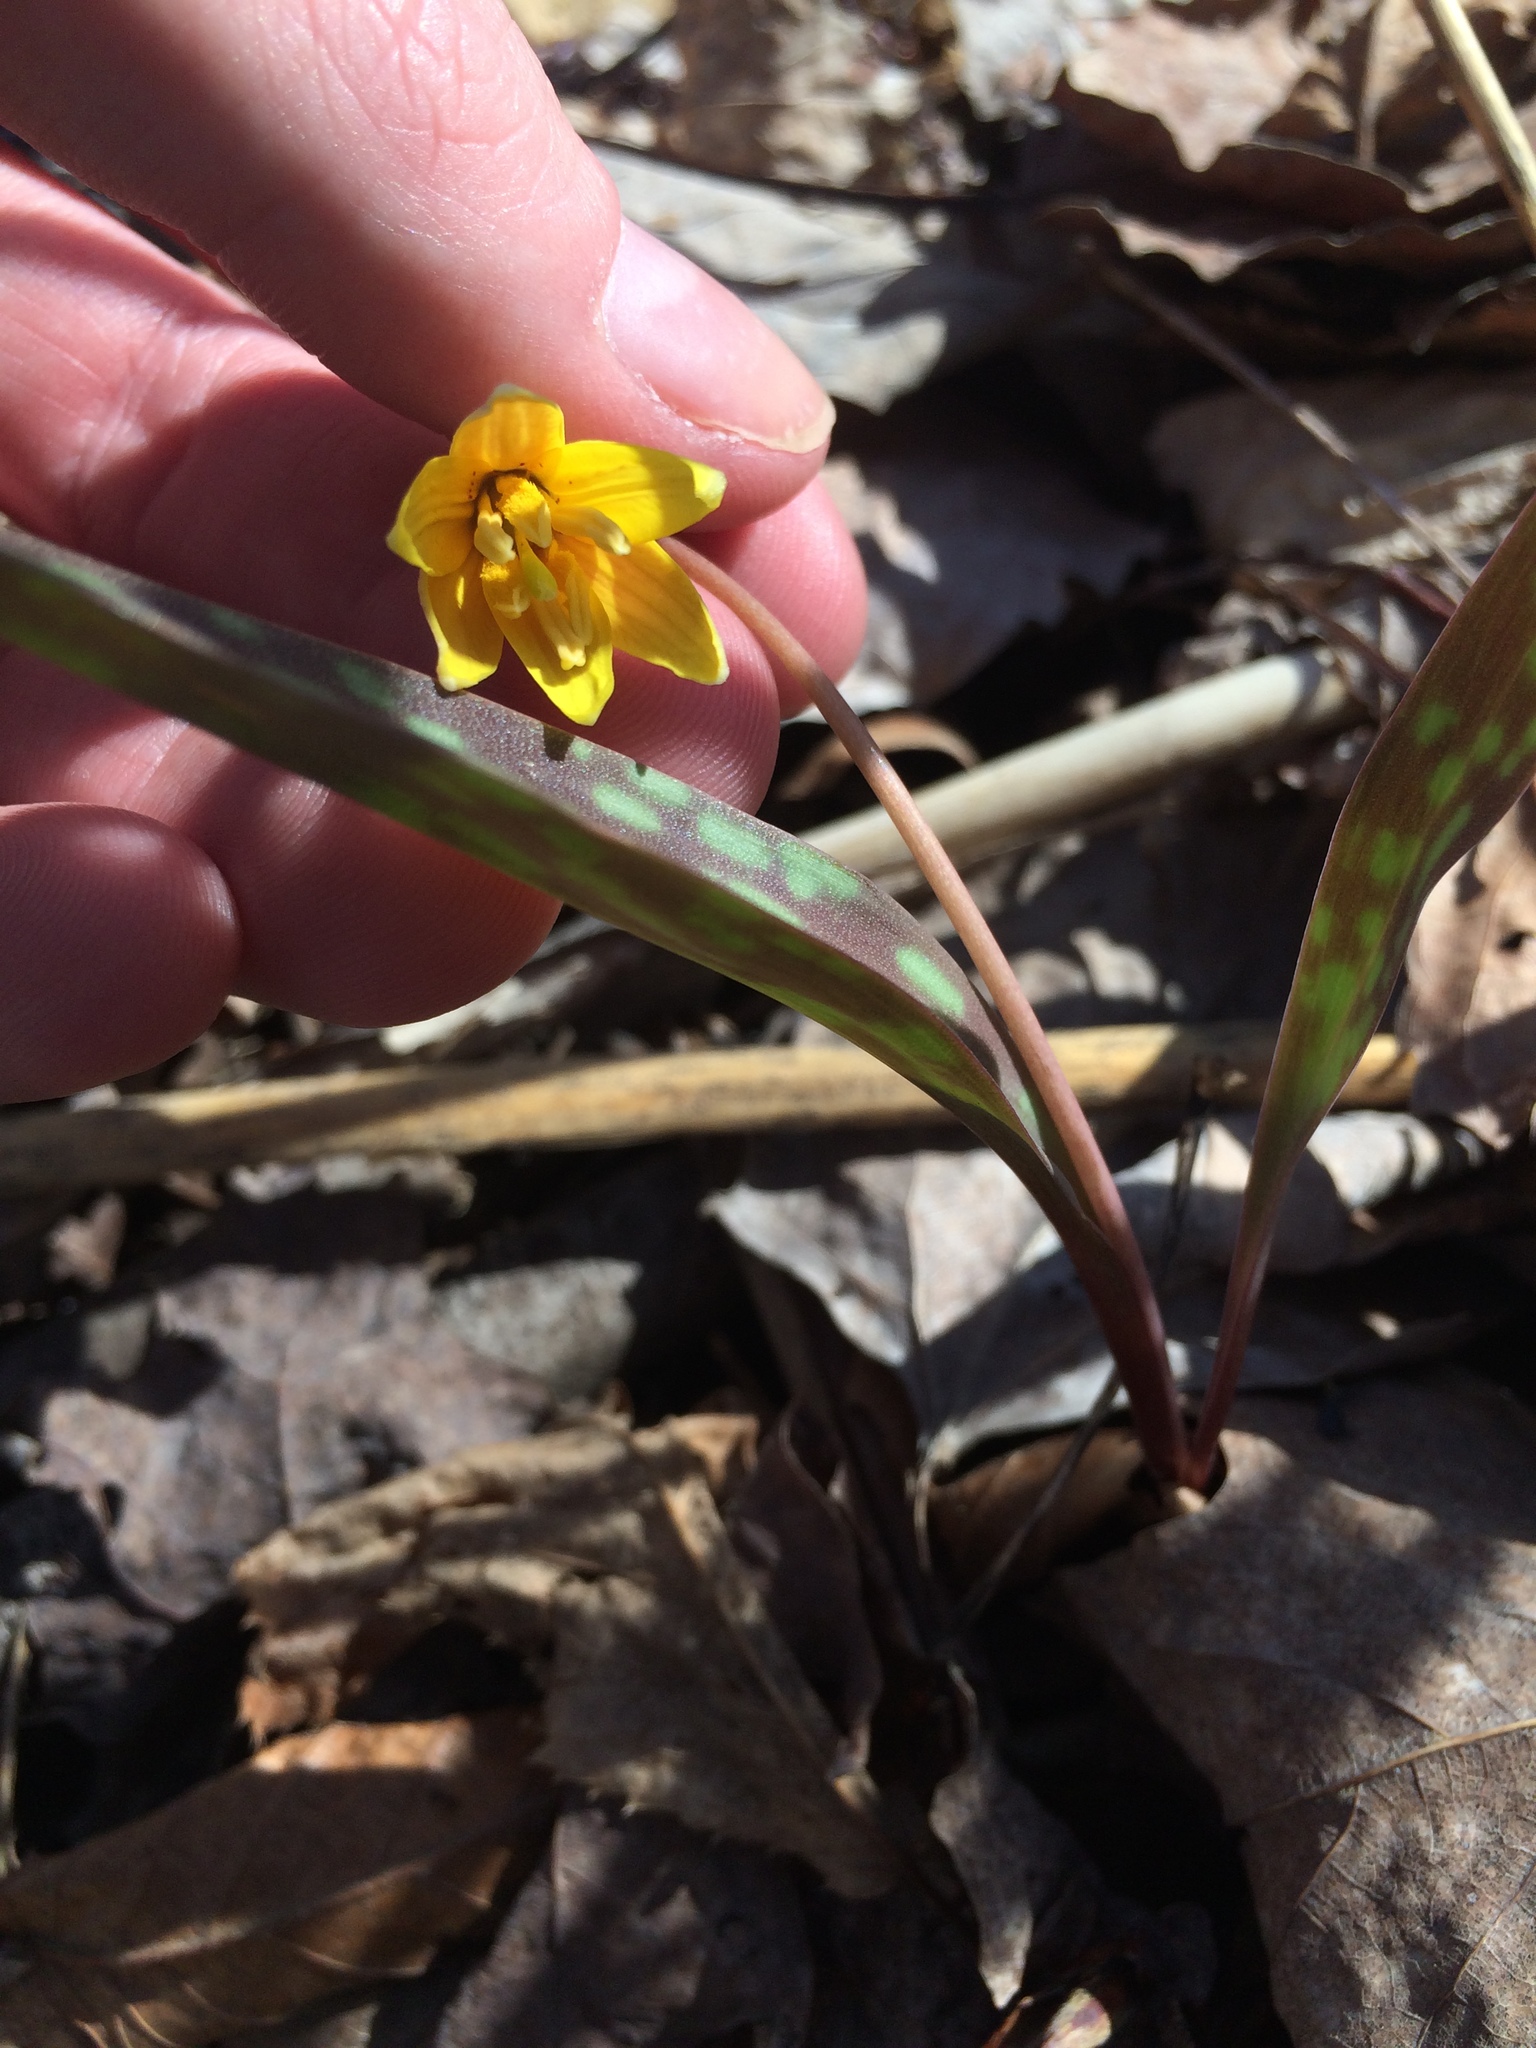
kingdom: Plantae
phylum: Tracheophyta
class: Liliopsida
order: Liliales
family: Liliaceae
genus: Erythronium
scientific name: Erythronium americanum
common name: Yellow adder's-tongue
